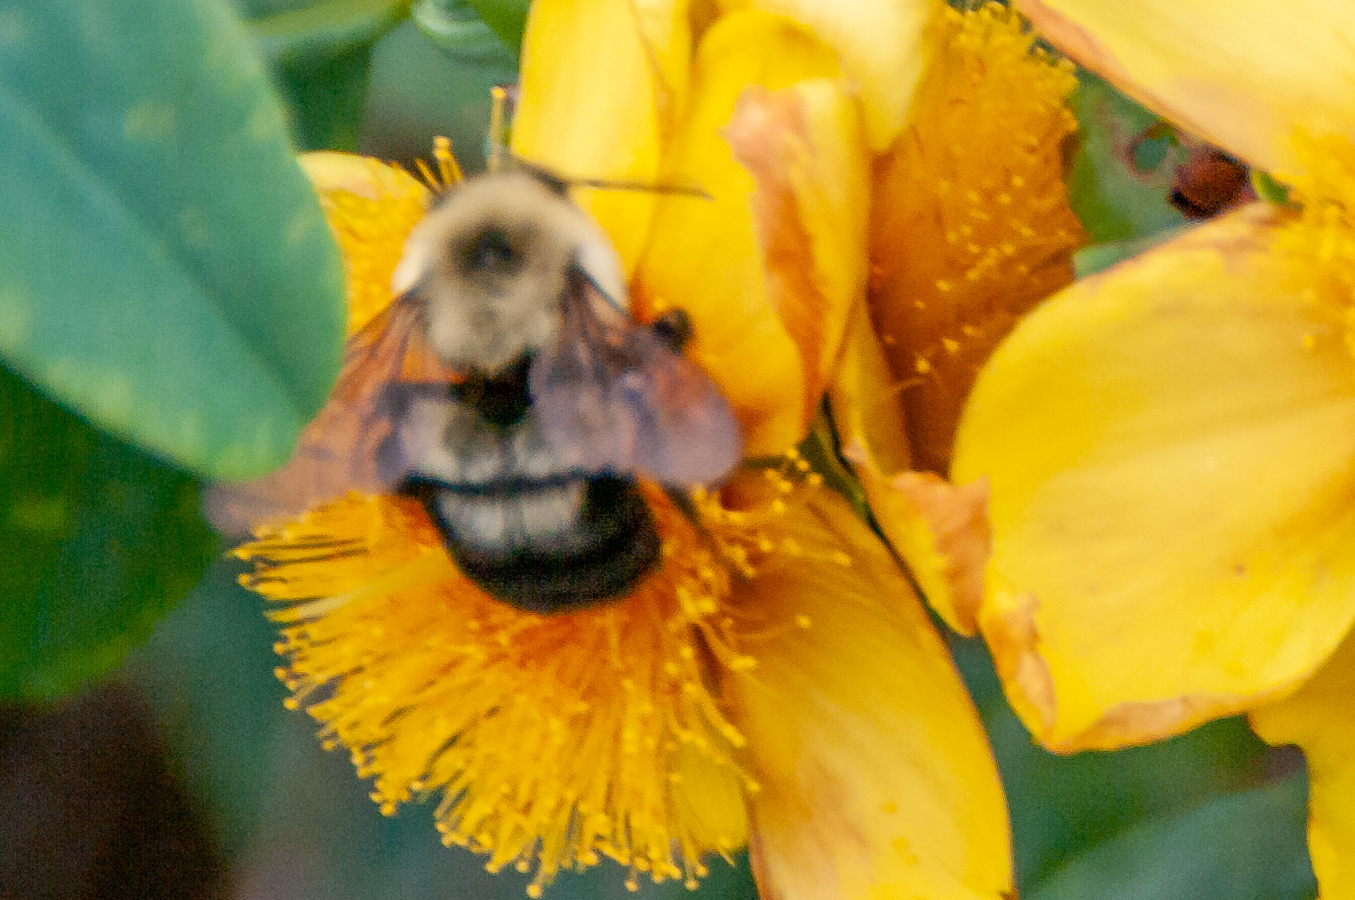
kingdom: Animalia
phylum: Arthropoda
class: Insecta
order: Hymenoptera
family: Apidae
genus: Bombus
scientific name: Bombus bimaculatus
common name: Two-spotted bumble bee
